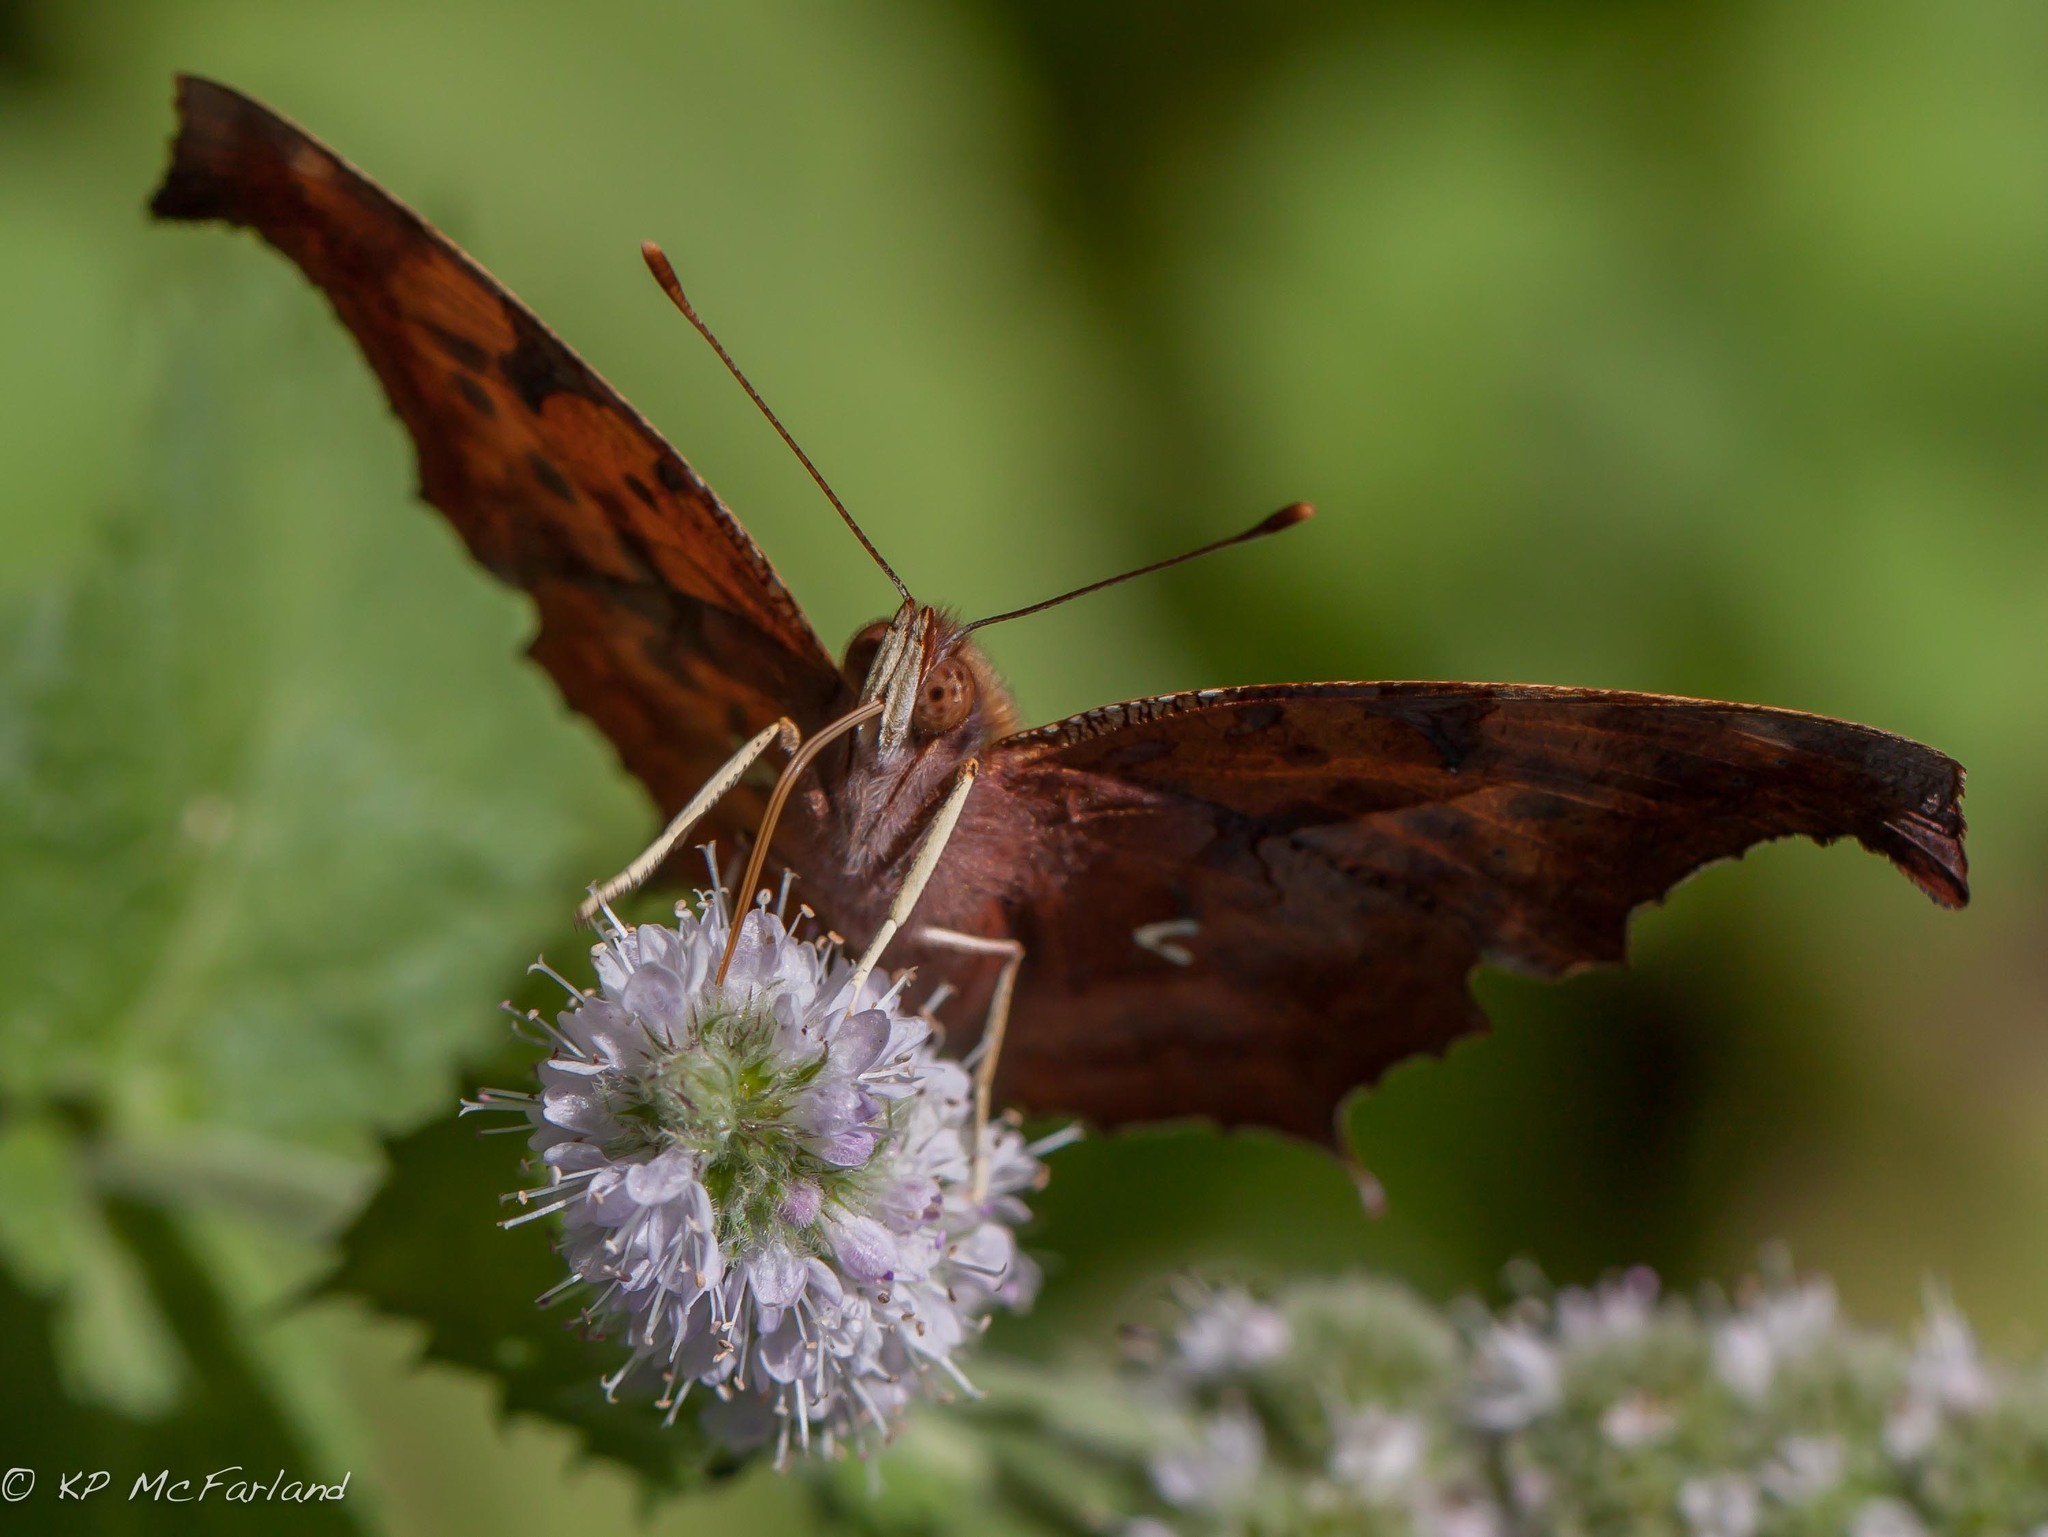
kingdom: Animalia
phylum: Arthropoda
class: Insecta
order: Lepidoptera
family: Nymphalidae
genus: Polygonia
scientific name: Polygonia interrogationis
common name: Question mark
